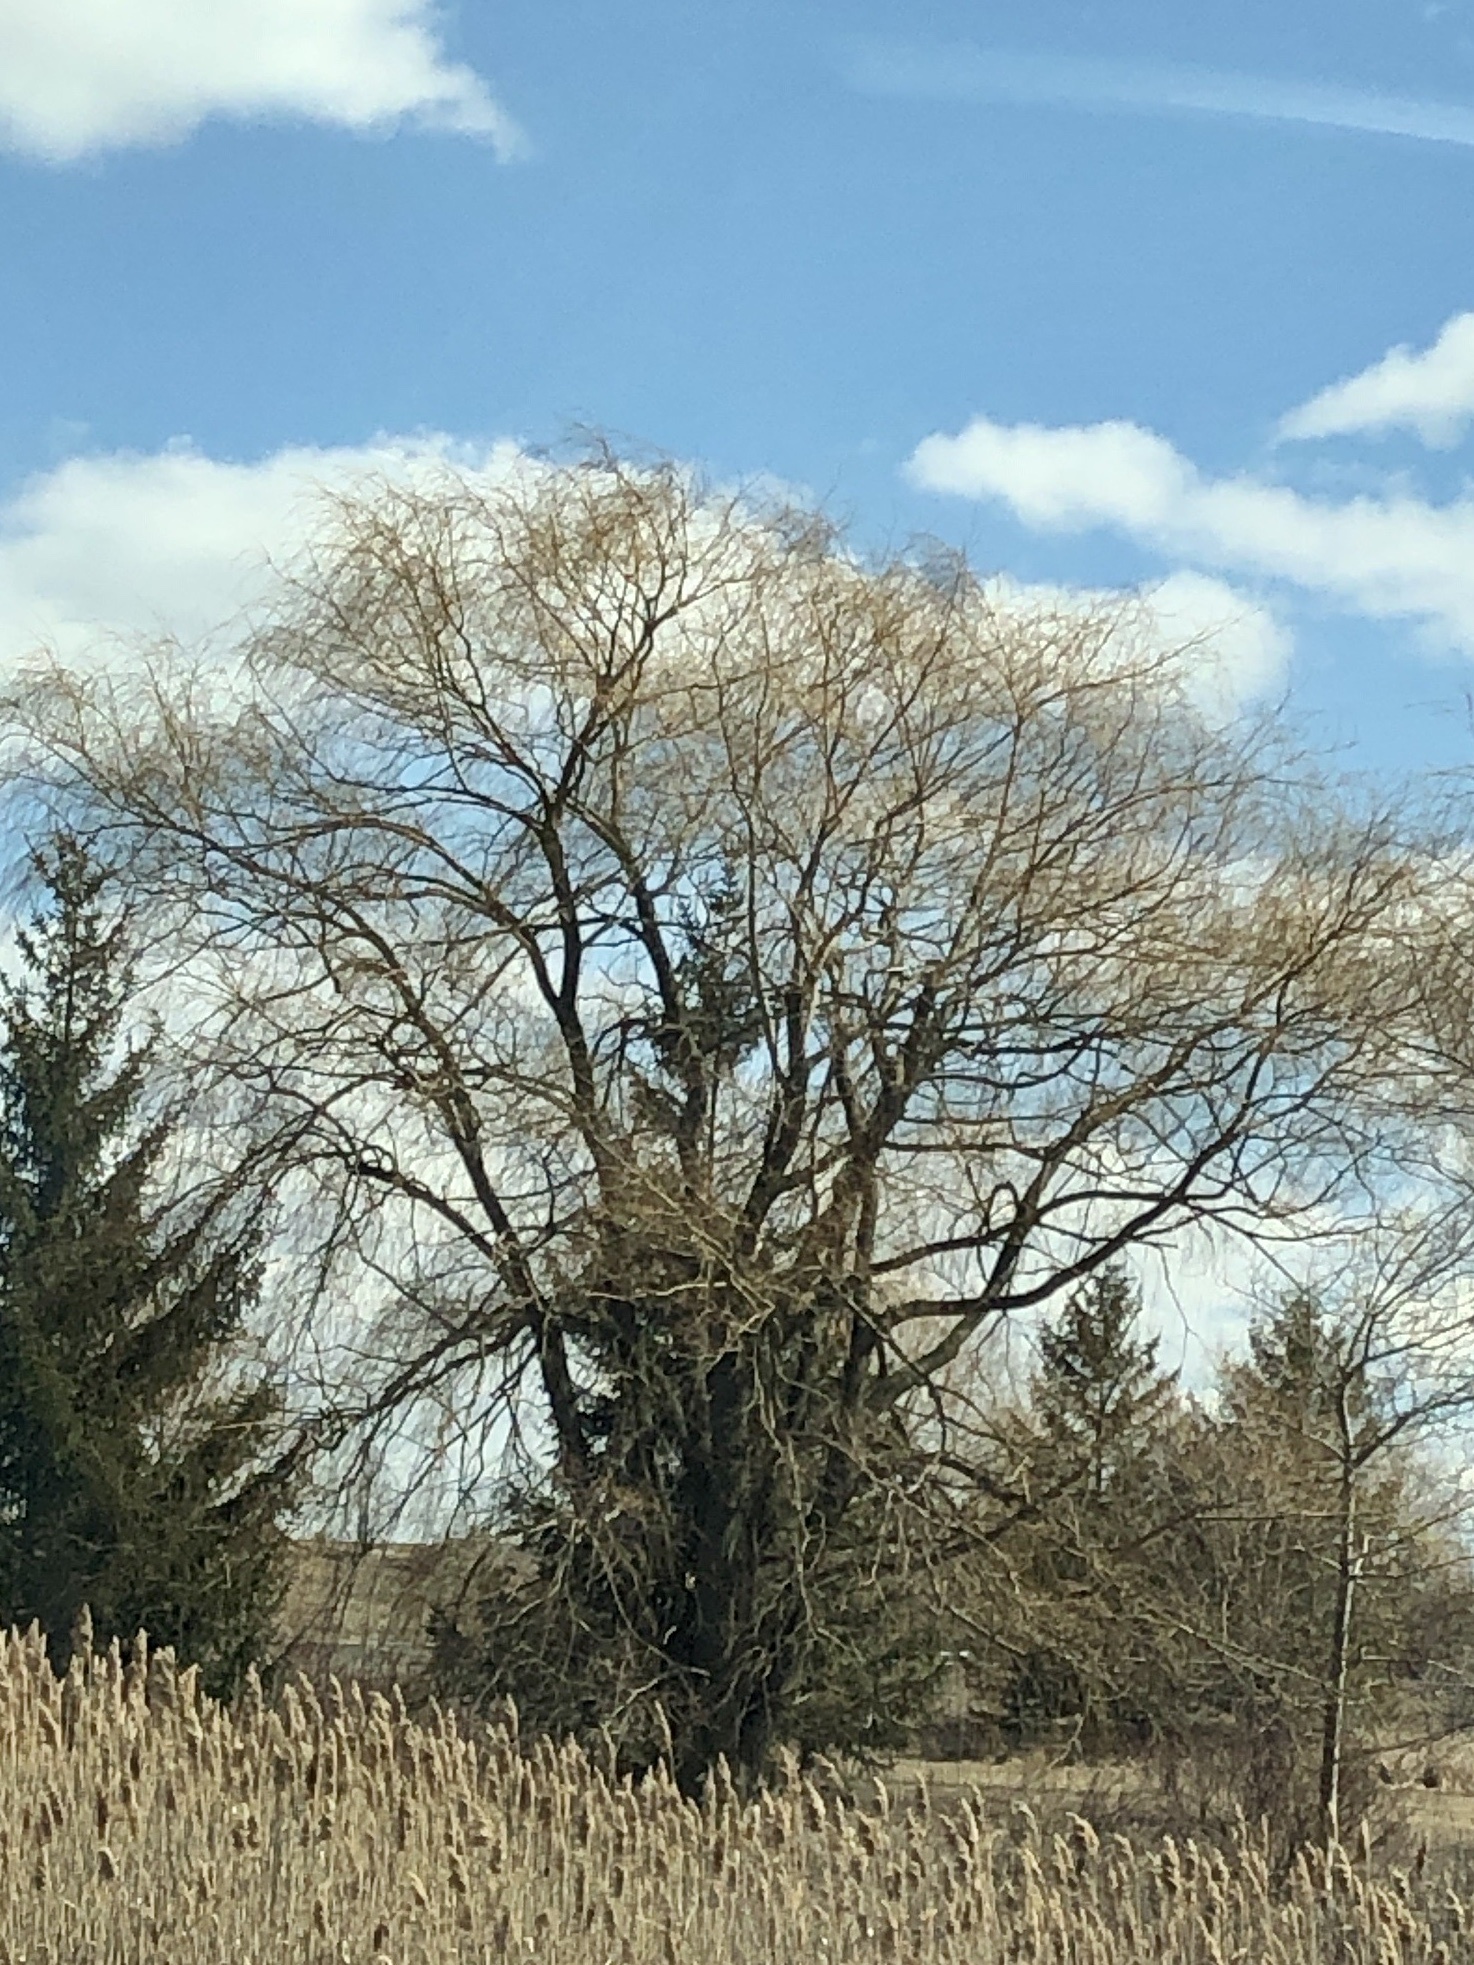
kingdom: Plantae
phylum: Tracheophyta
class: Magnoliopsida
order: Malpighiales
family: Salicaceae
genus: Salix
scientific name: Salix pendulina
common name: Wisconsin weeping willow
